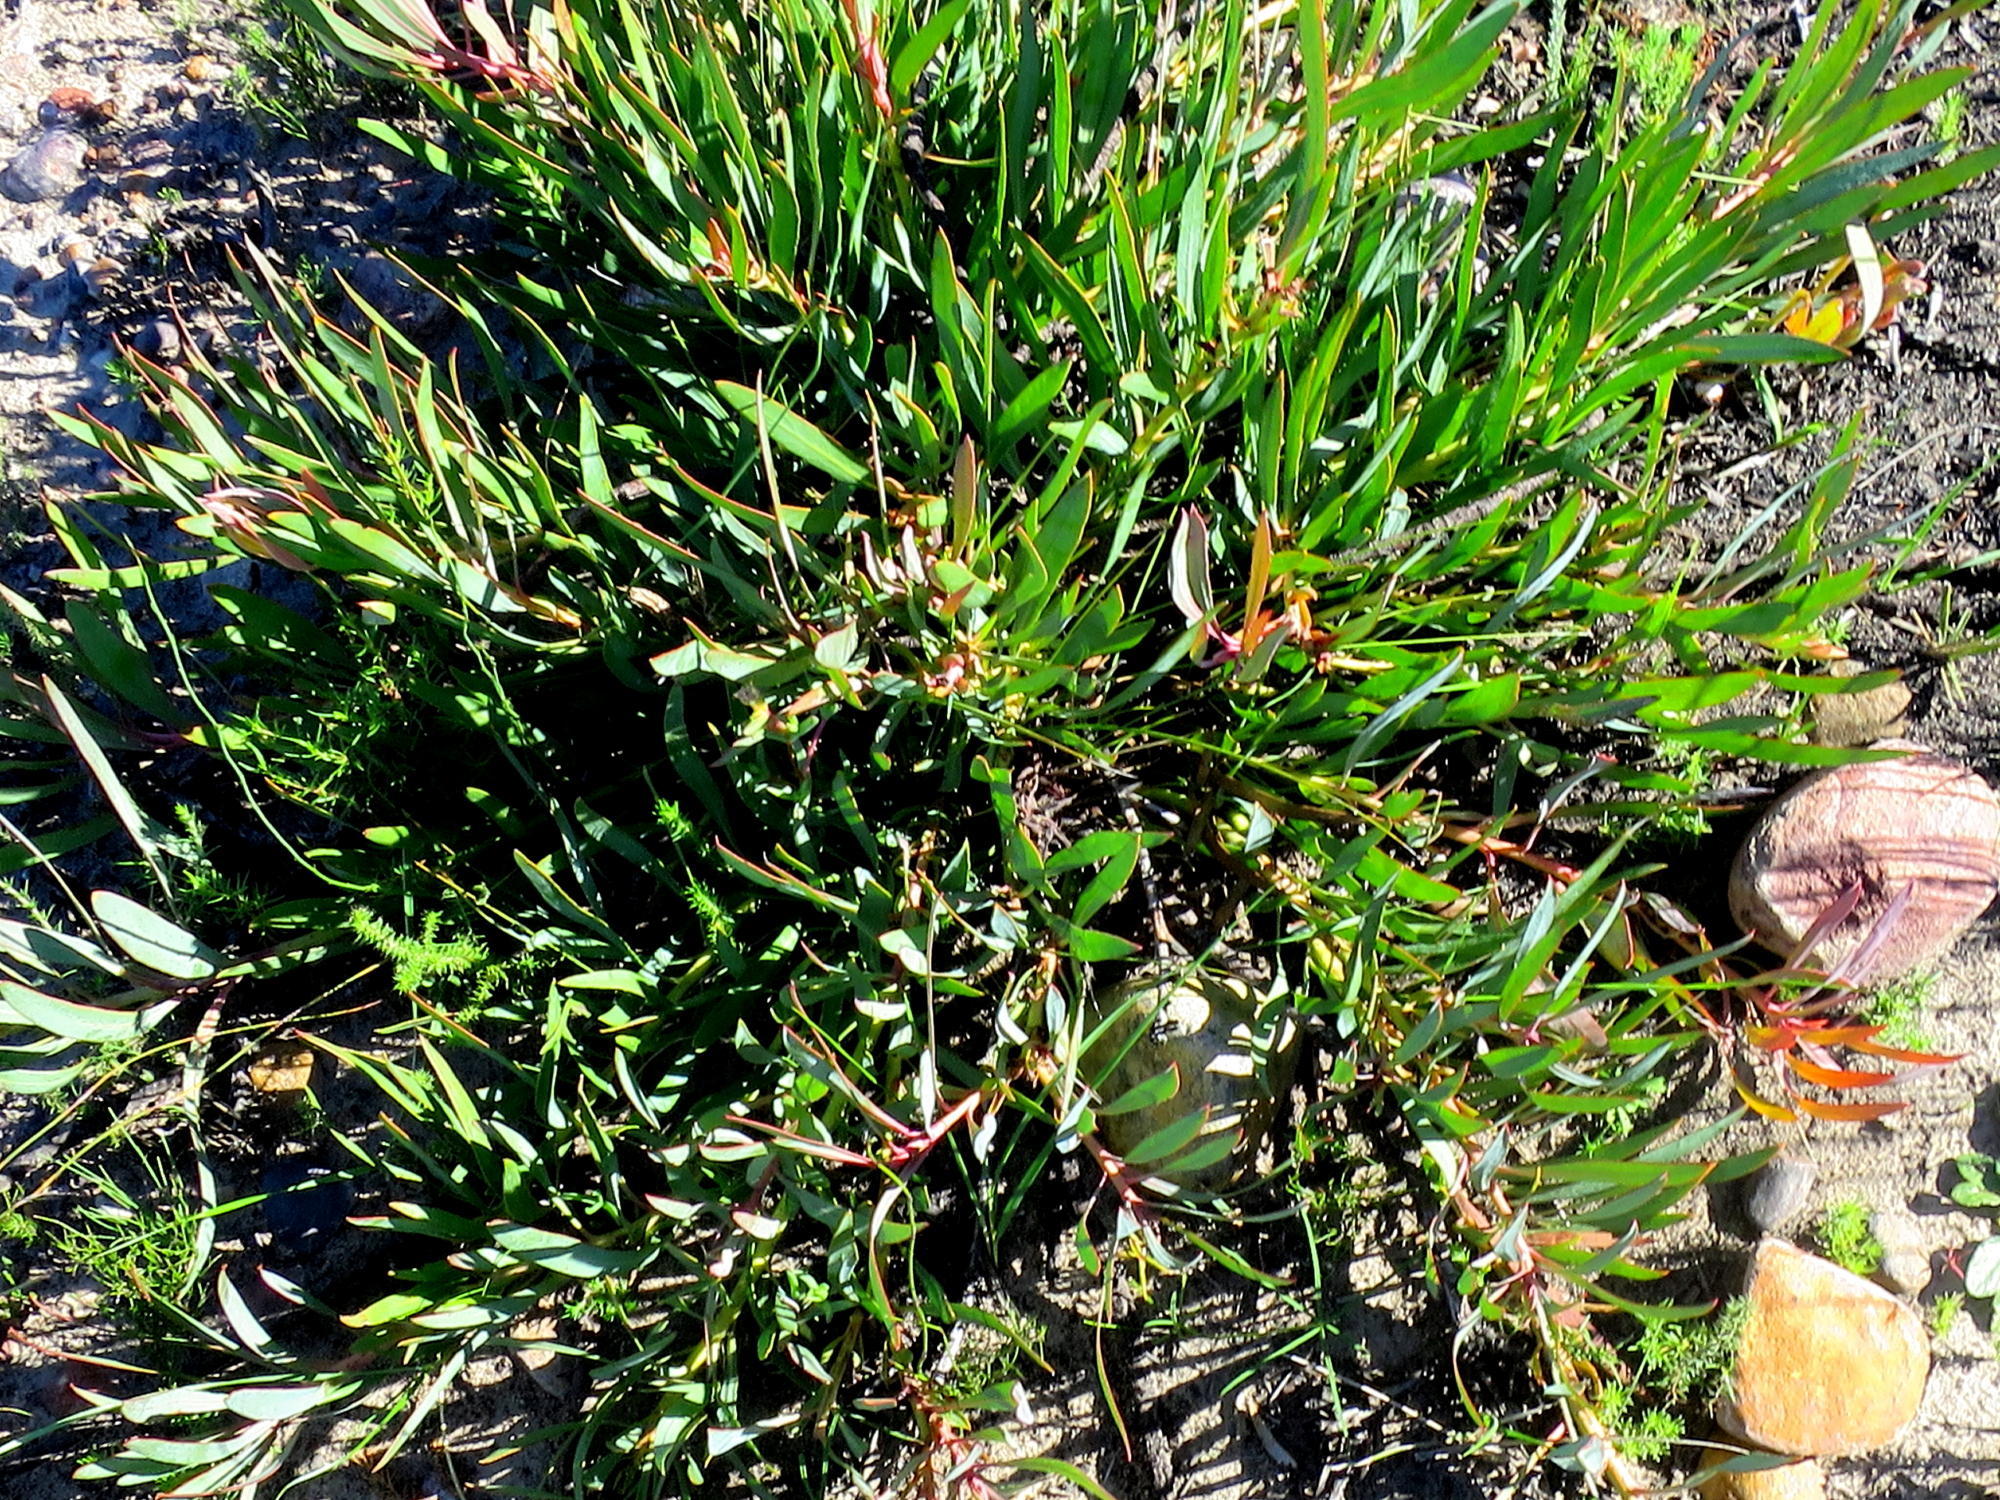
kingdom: Plantae
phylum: Tracheophyta
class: Magnoliopsida
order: Proteales
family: Proteaceae
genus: Protea
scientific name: Protea tenax
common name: Tenacious sugarbush
